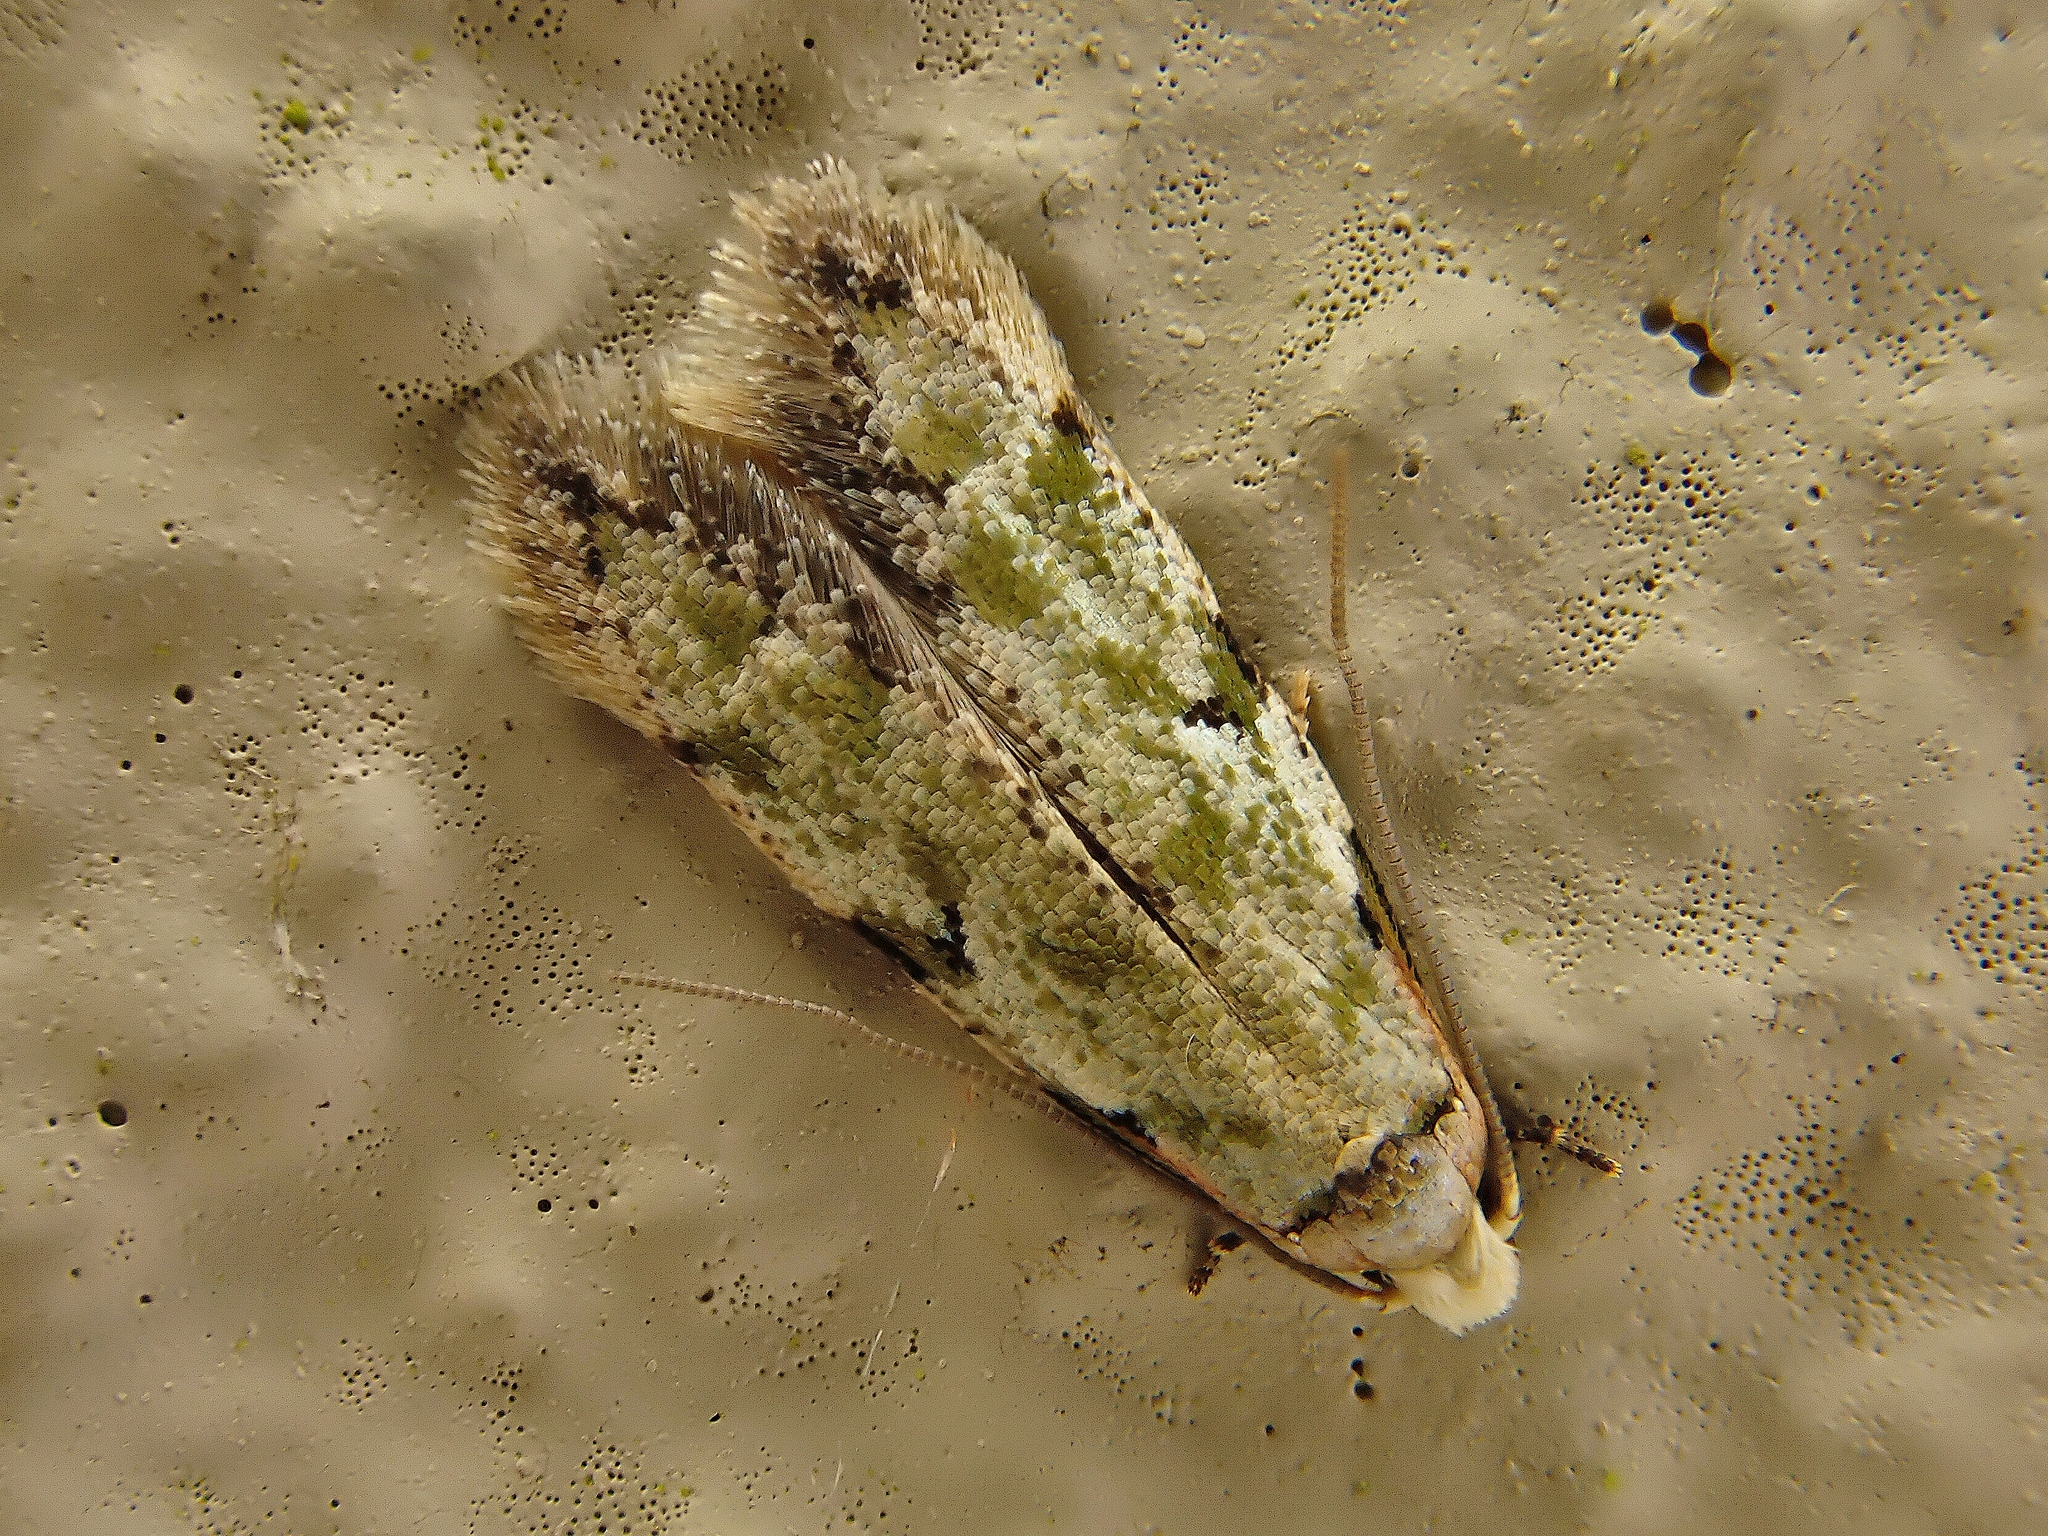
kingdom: Animalia
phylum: Arthropoda
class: Insecta
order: Lepidoptera
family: Tineidae
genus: Endophthora
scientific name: Endophthora pallacopis
